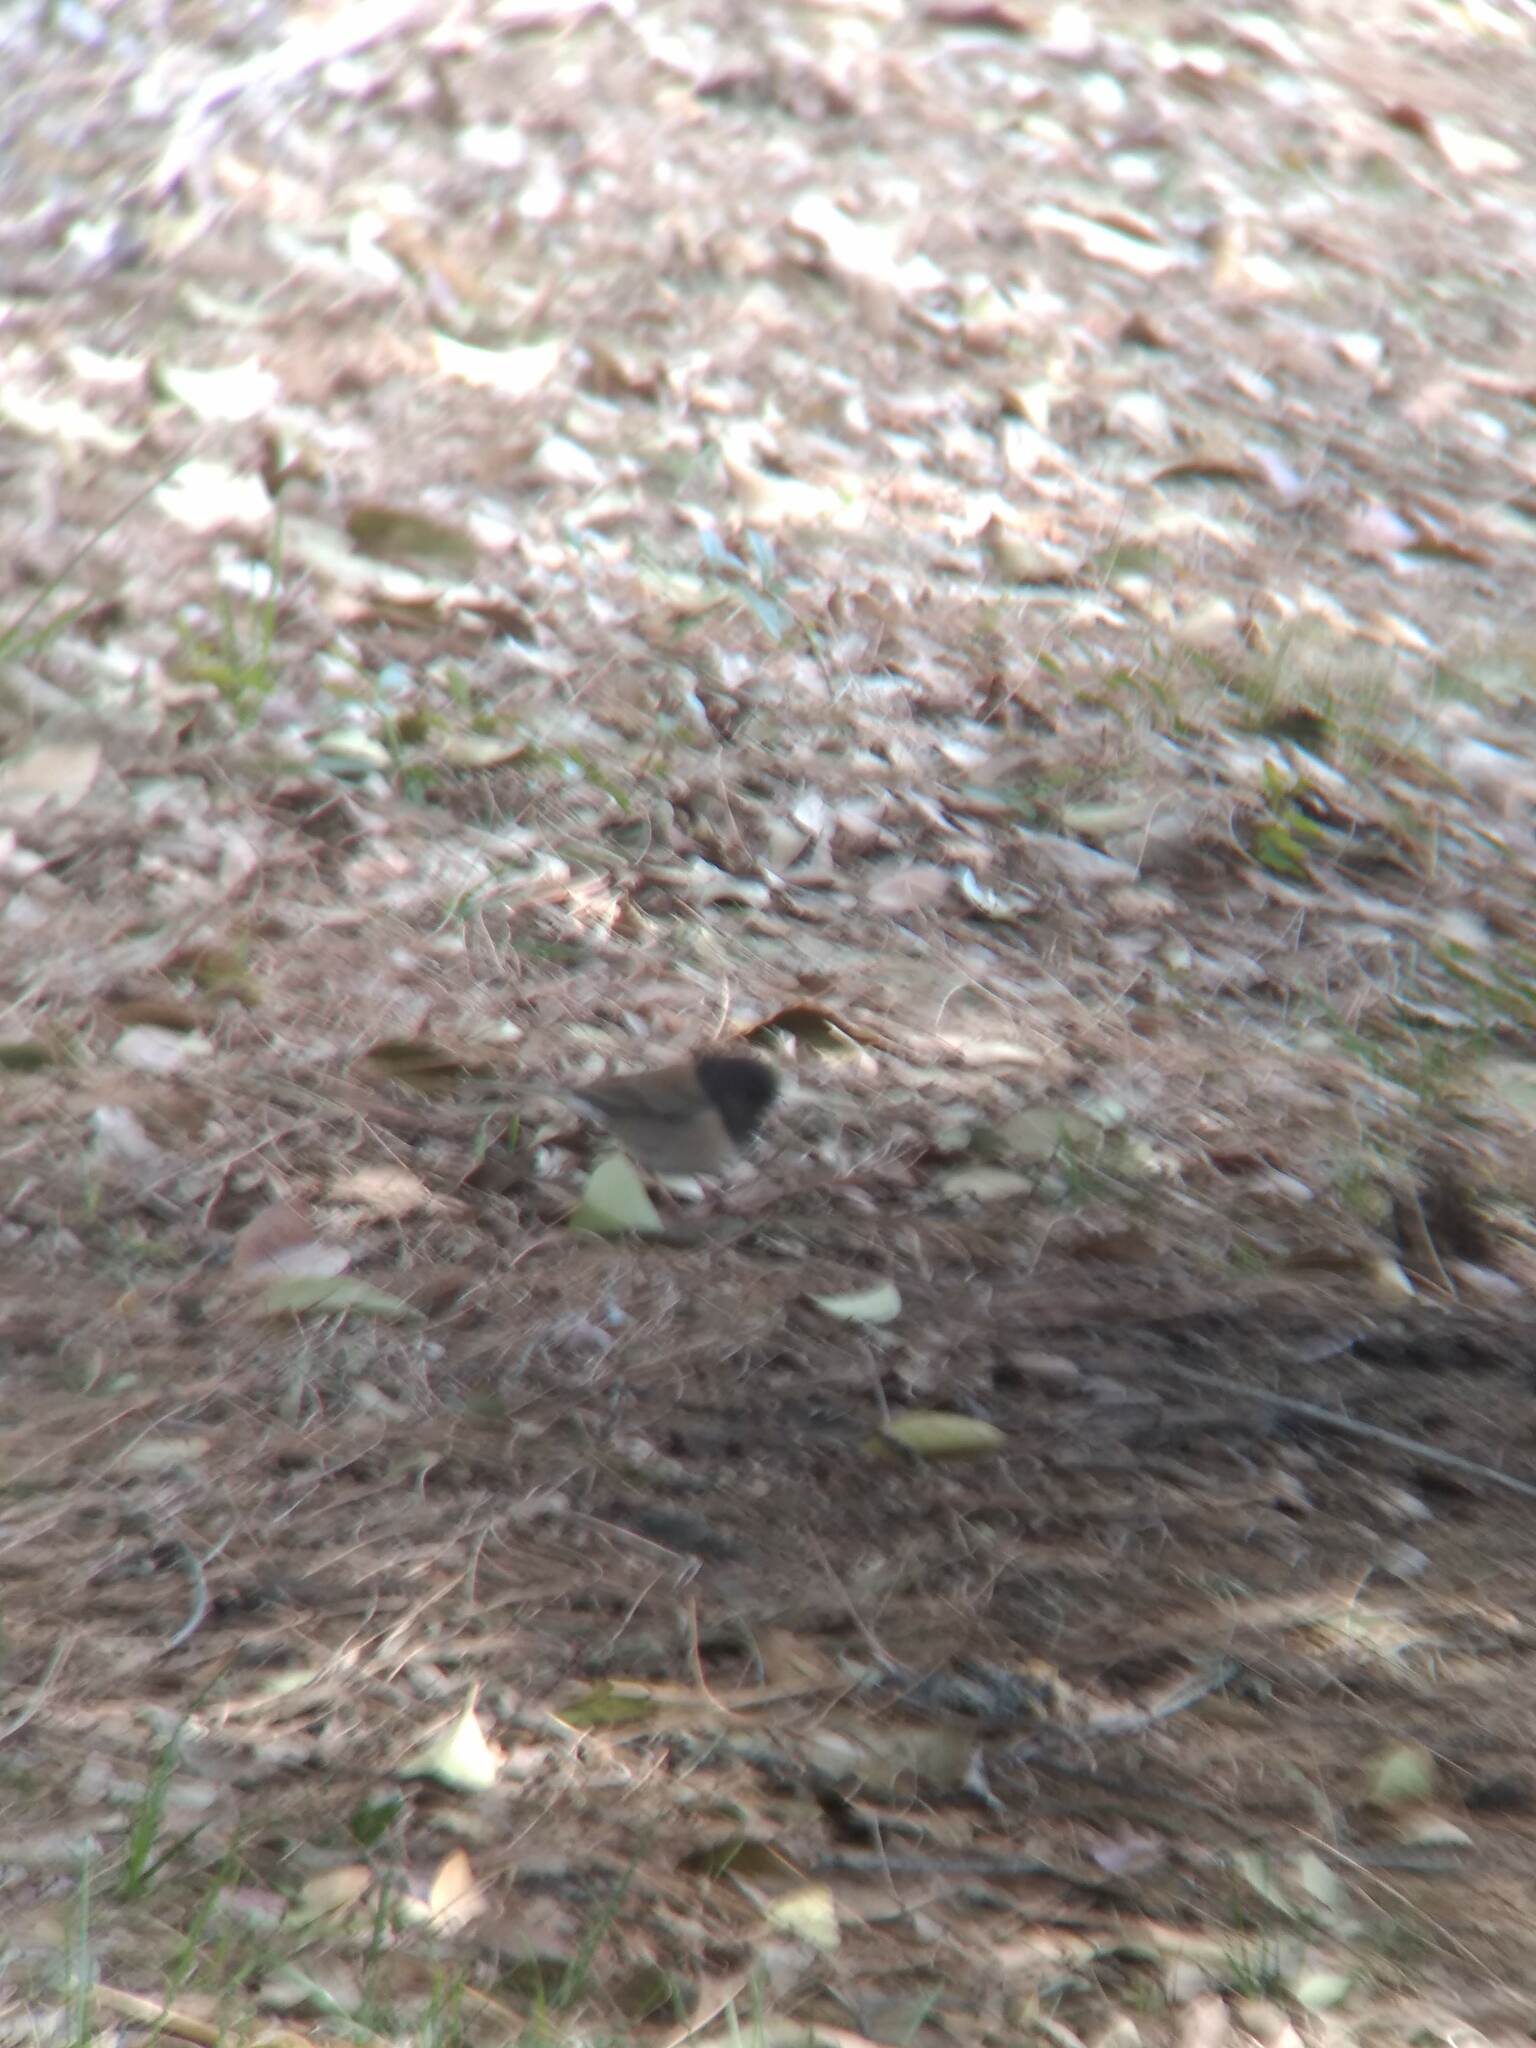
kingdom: Animalia
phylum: Chordata
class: Aves
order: Passeriformes
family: Passerellidae
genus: Junco
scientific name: Junco hyemalis
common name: Dark-eyed junco
